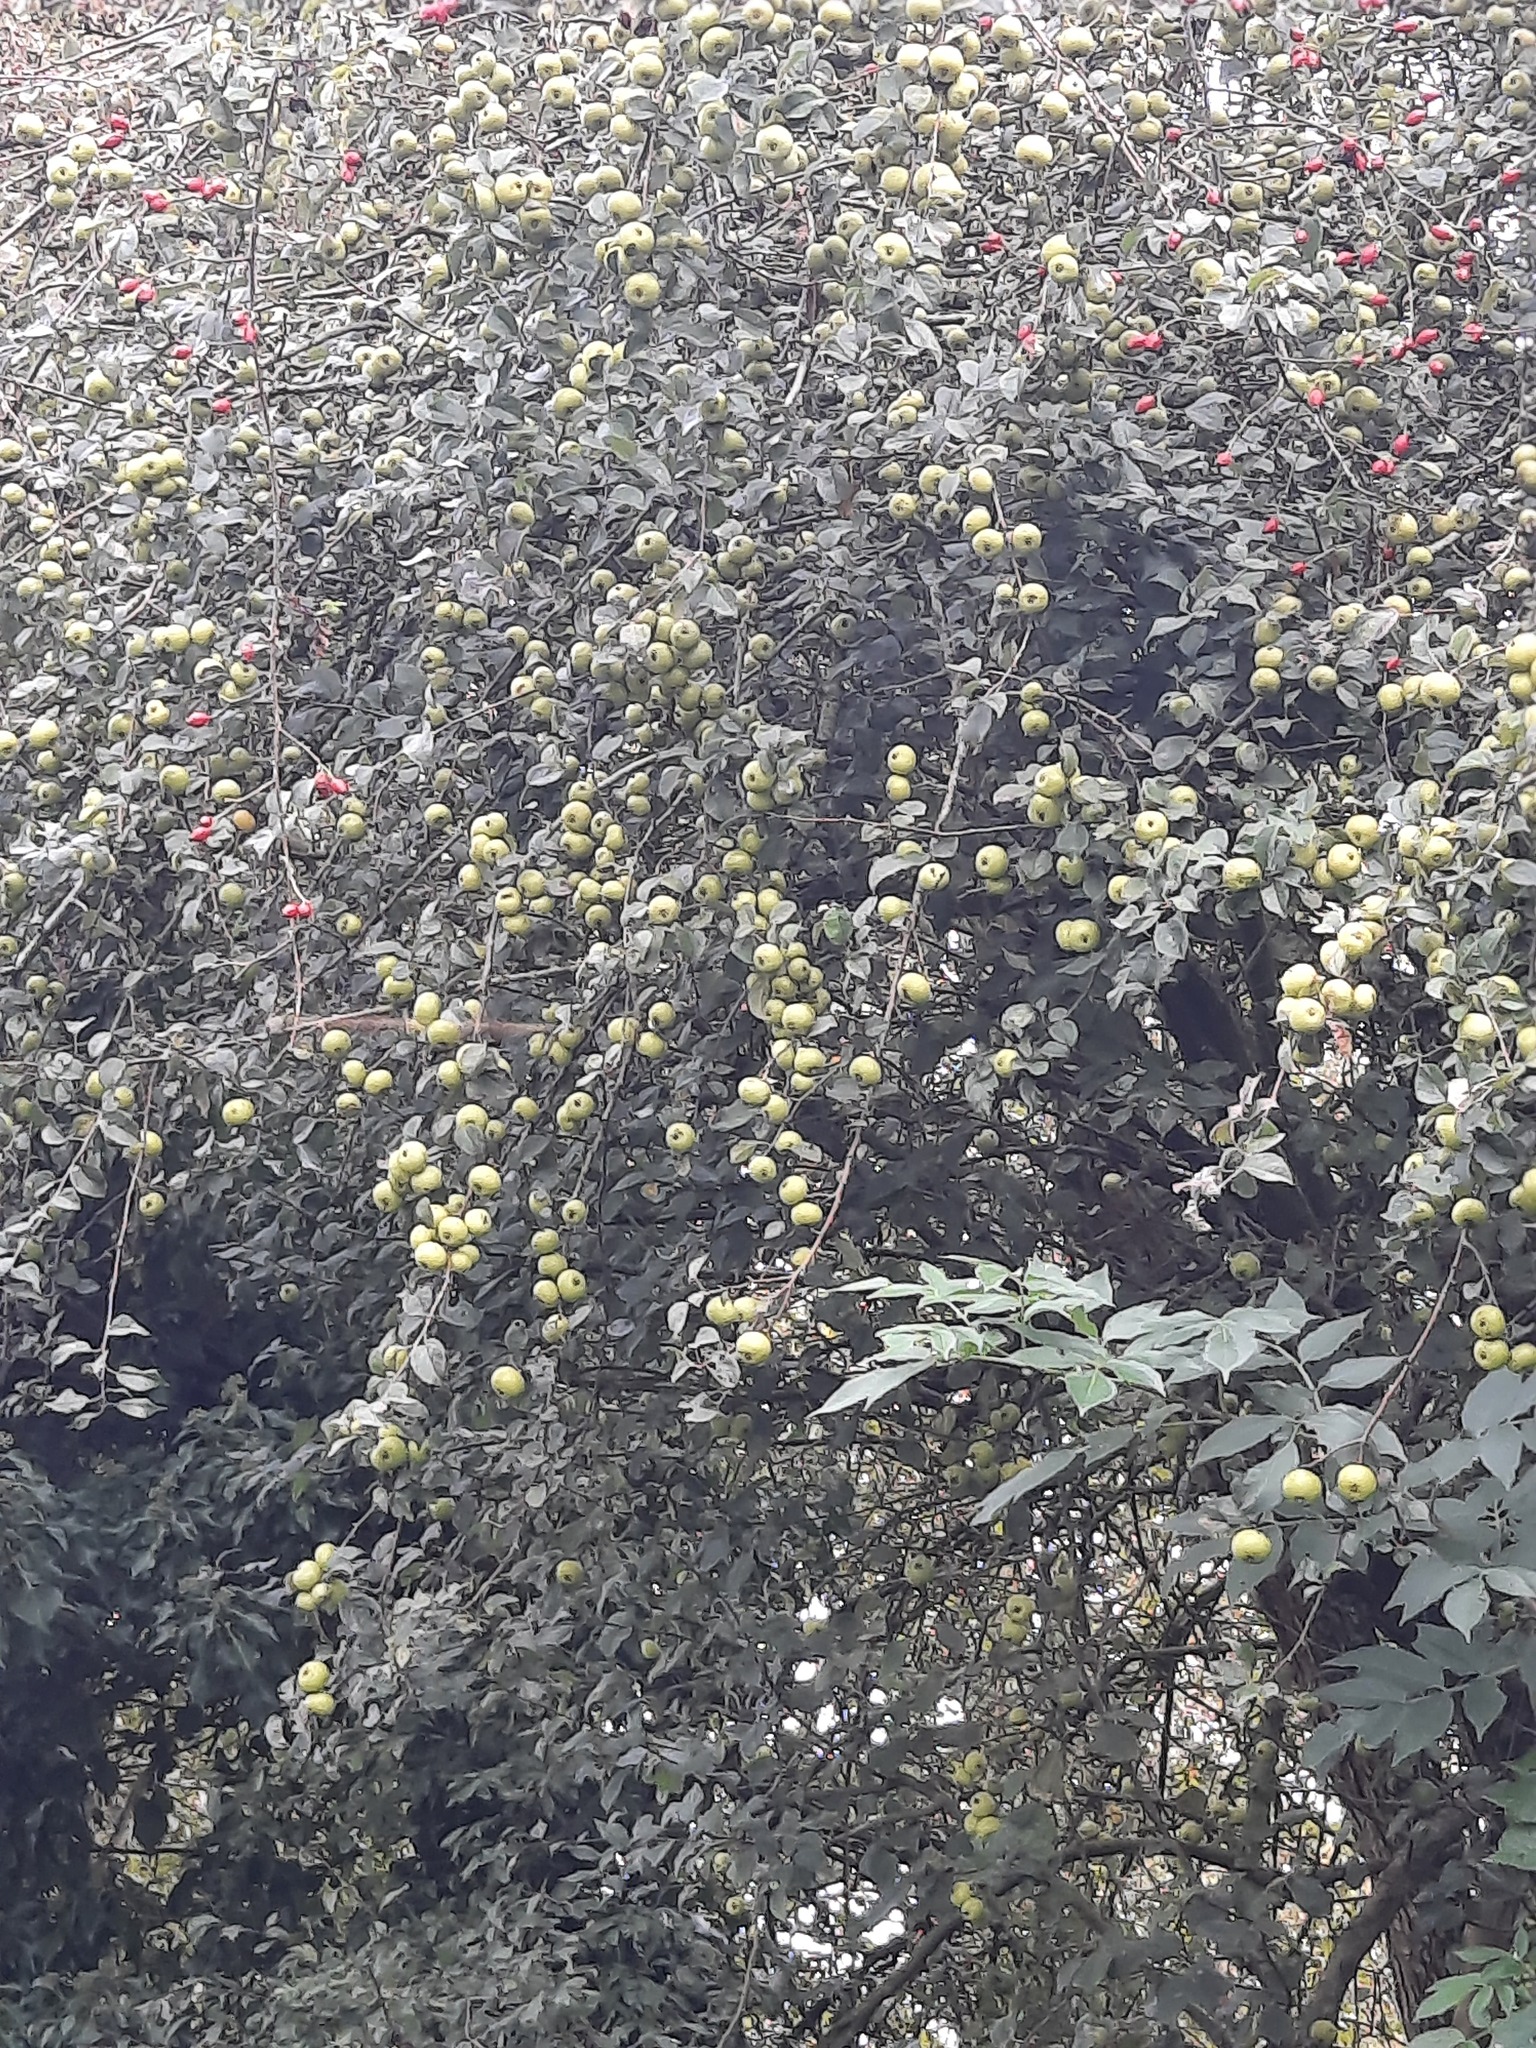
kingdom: Plantae
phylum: Tracheophyta
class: Magnoliopsida
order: Rosales
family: Rosaceae
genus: Malus
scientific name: Malus sylvestris
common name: Crab apple
